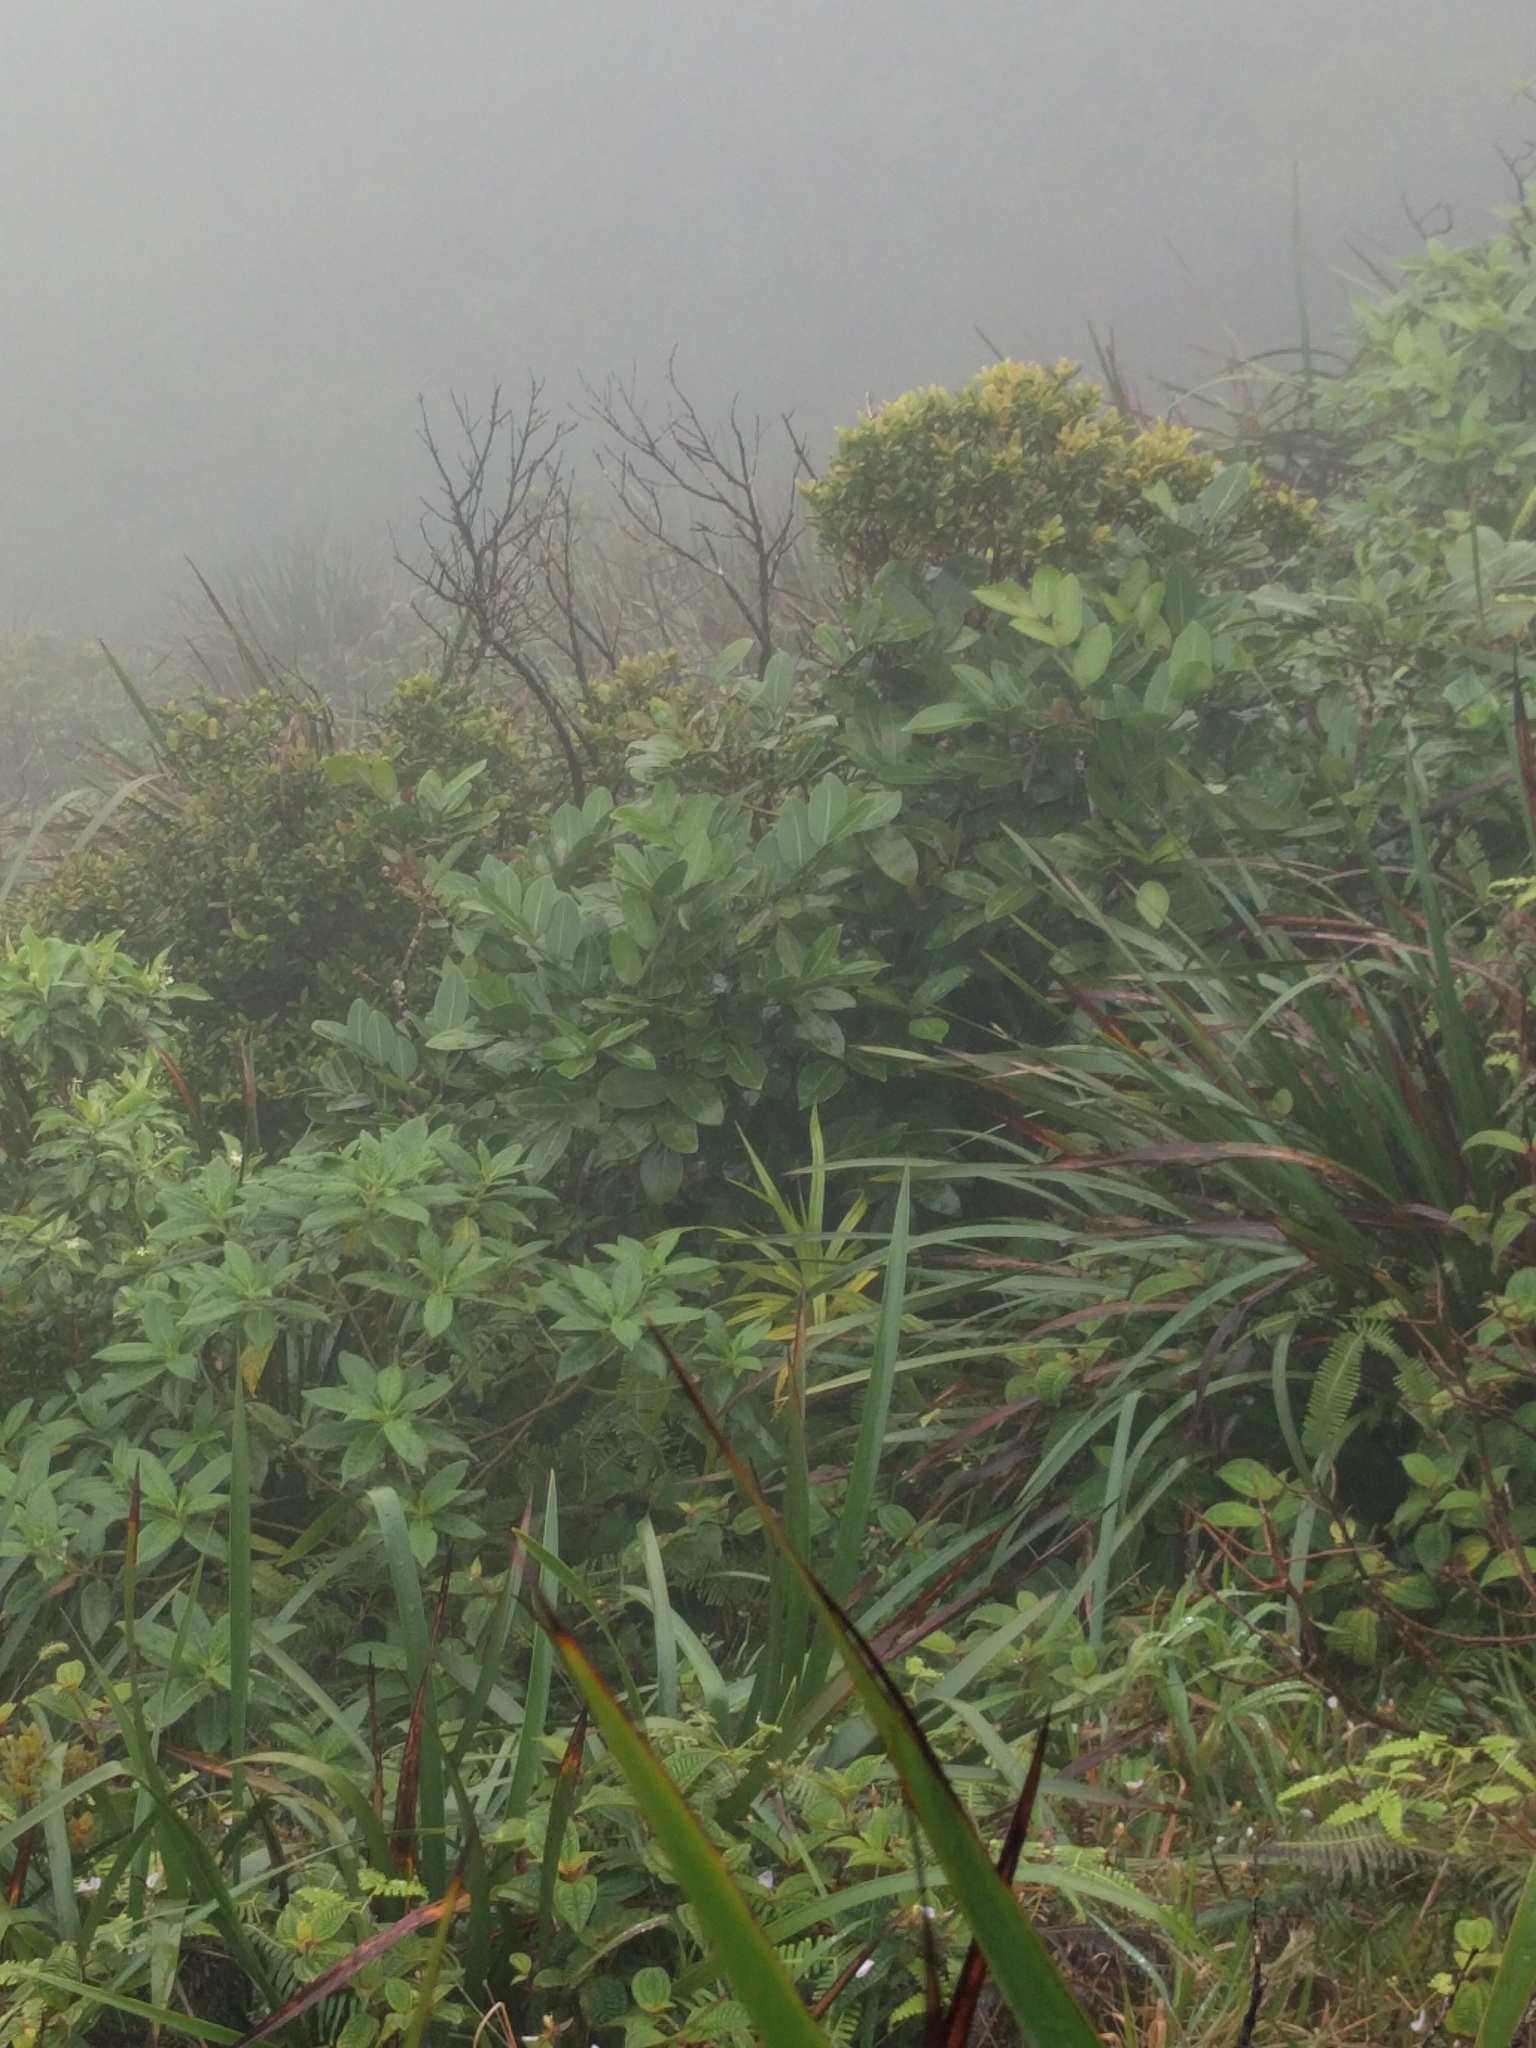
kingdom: Plantae
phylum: Tracheophyta
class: Magnoliopsida
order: Apiales
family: Araliaceae
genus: Polyscias
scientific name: Polyscias oahuensis
